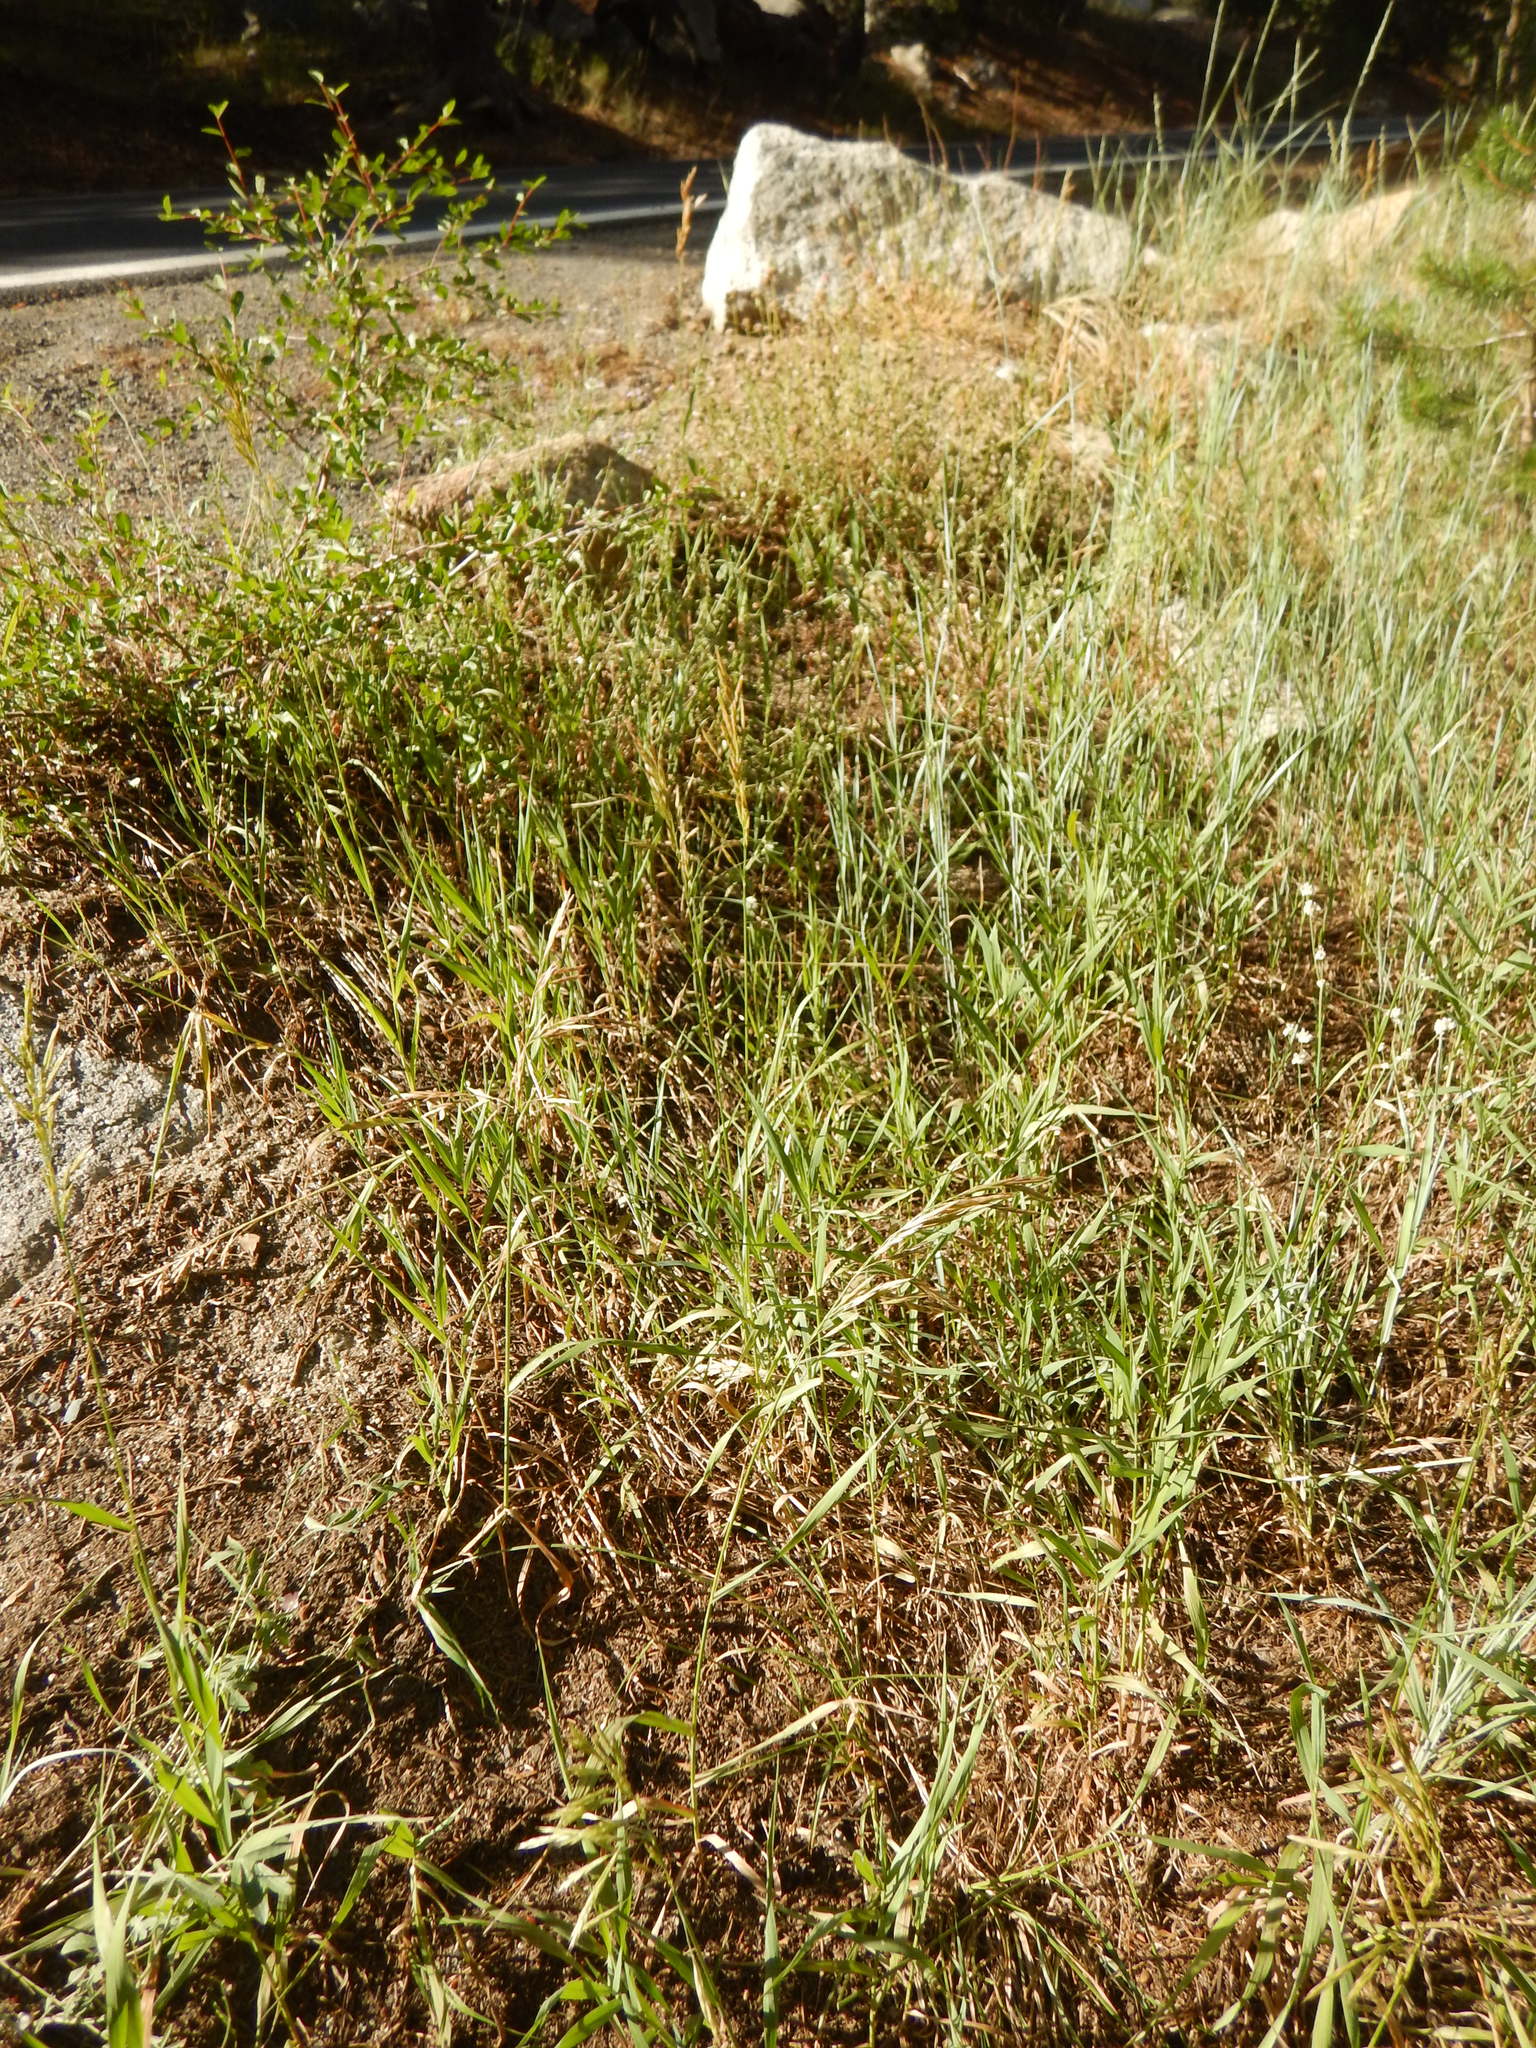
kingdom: Plantae
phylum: Tracheophyta
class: Liliopsida
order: Poales
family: Poaceae
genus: Bromus
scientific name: Bromus inermis
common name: Smooth brome
